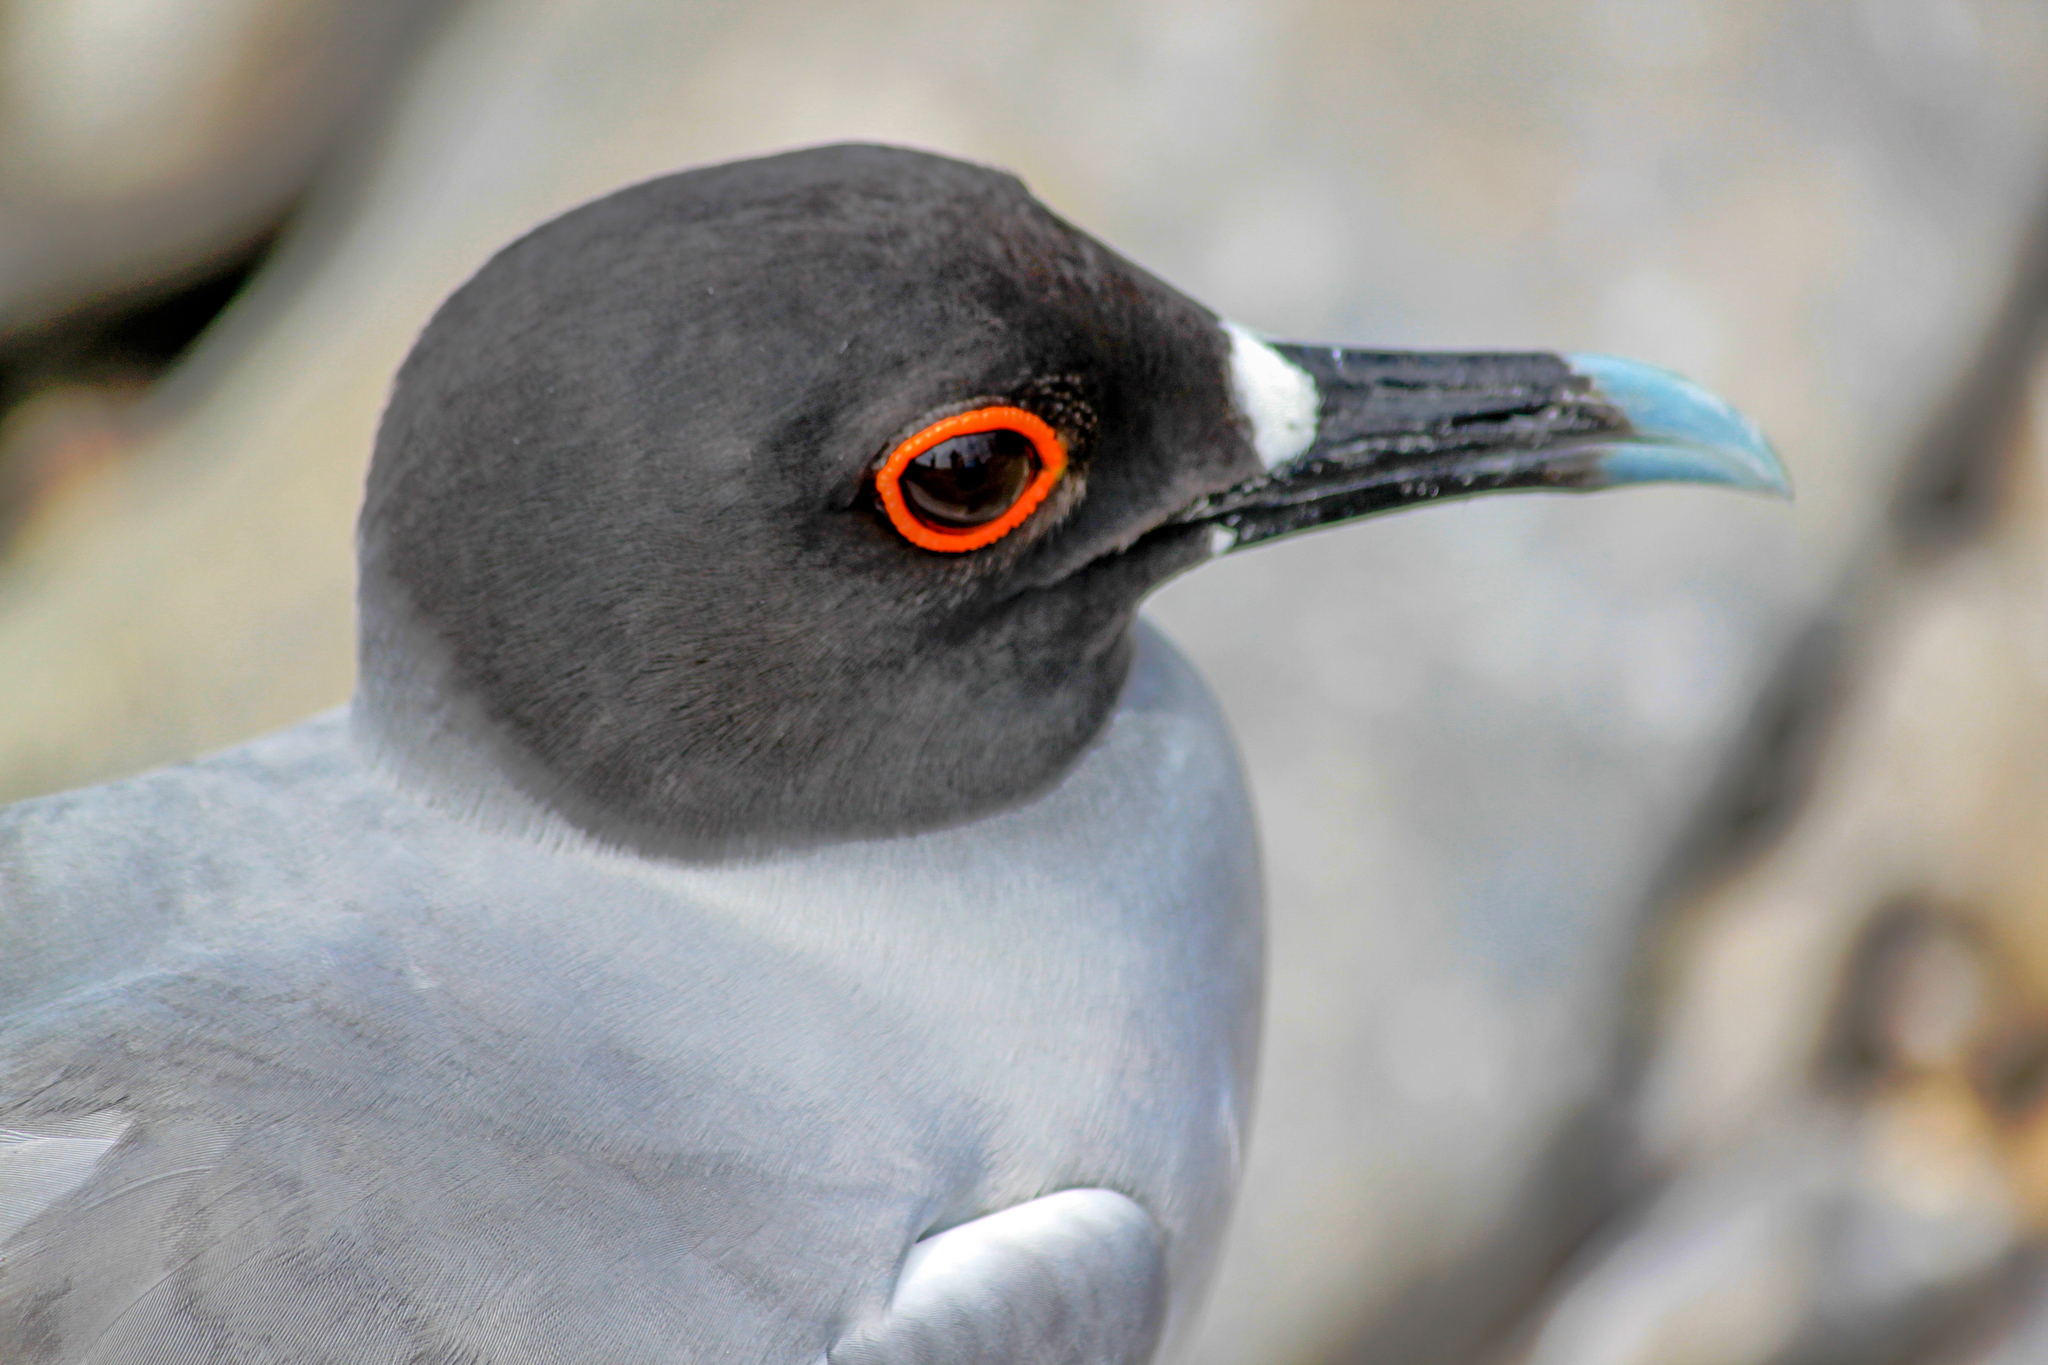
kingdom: Animalia
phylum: Chordata
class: Aves
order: Charadriiformes
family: Laridae
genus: Creagrus
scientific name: Creagrus furcatus
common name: Swallow-tailed gull
